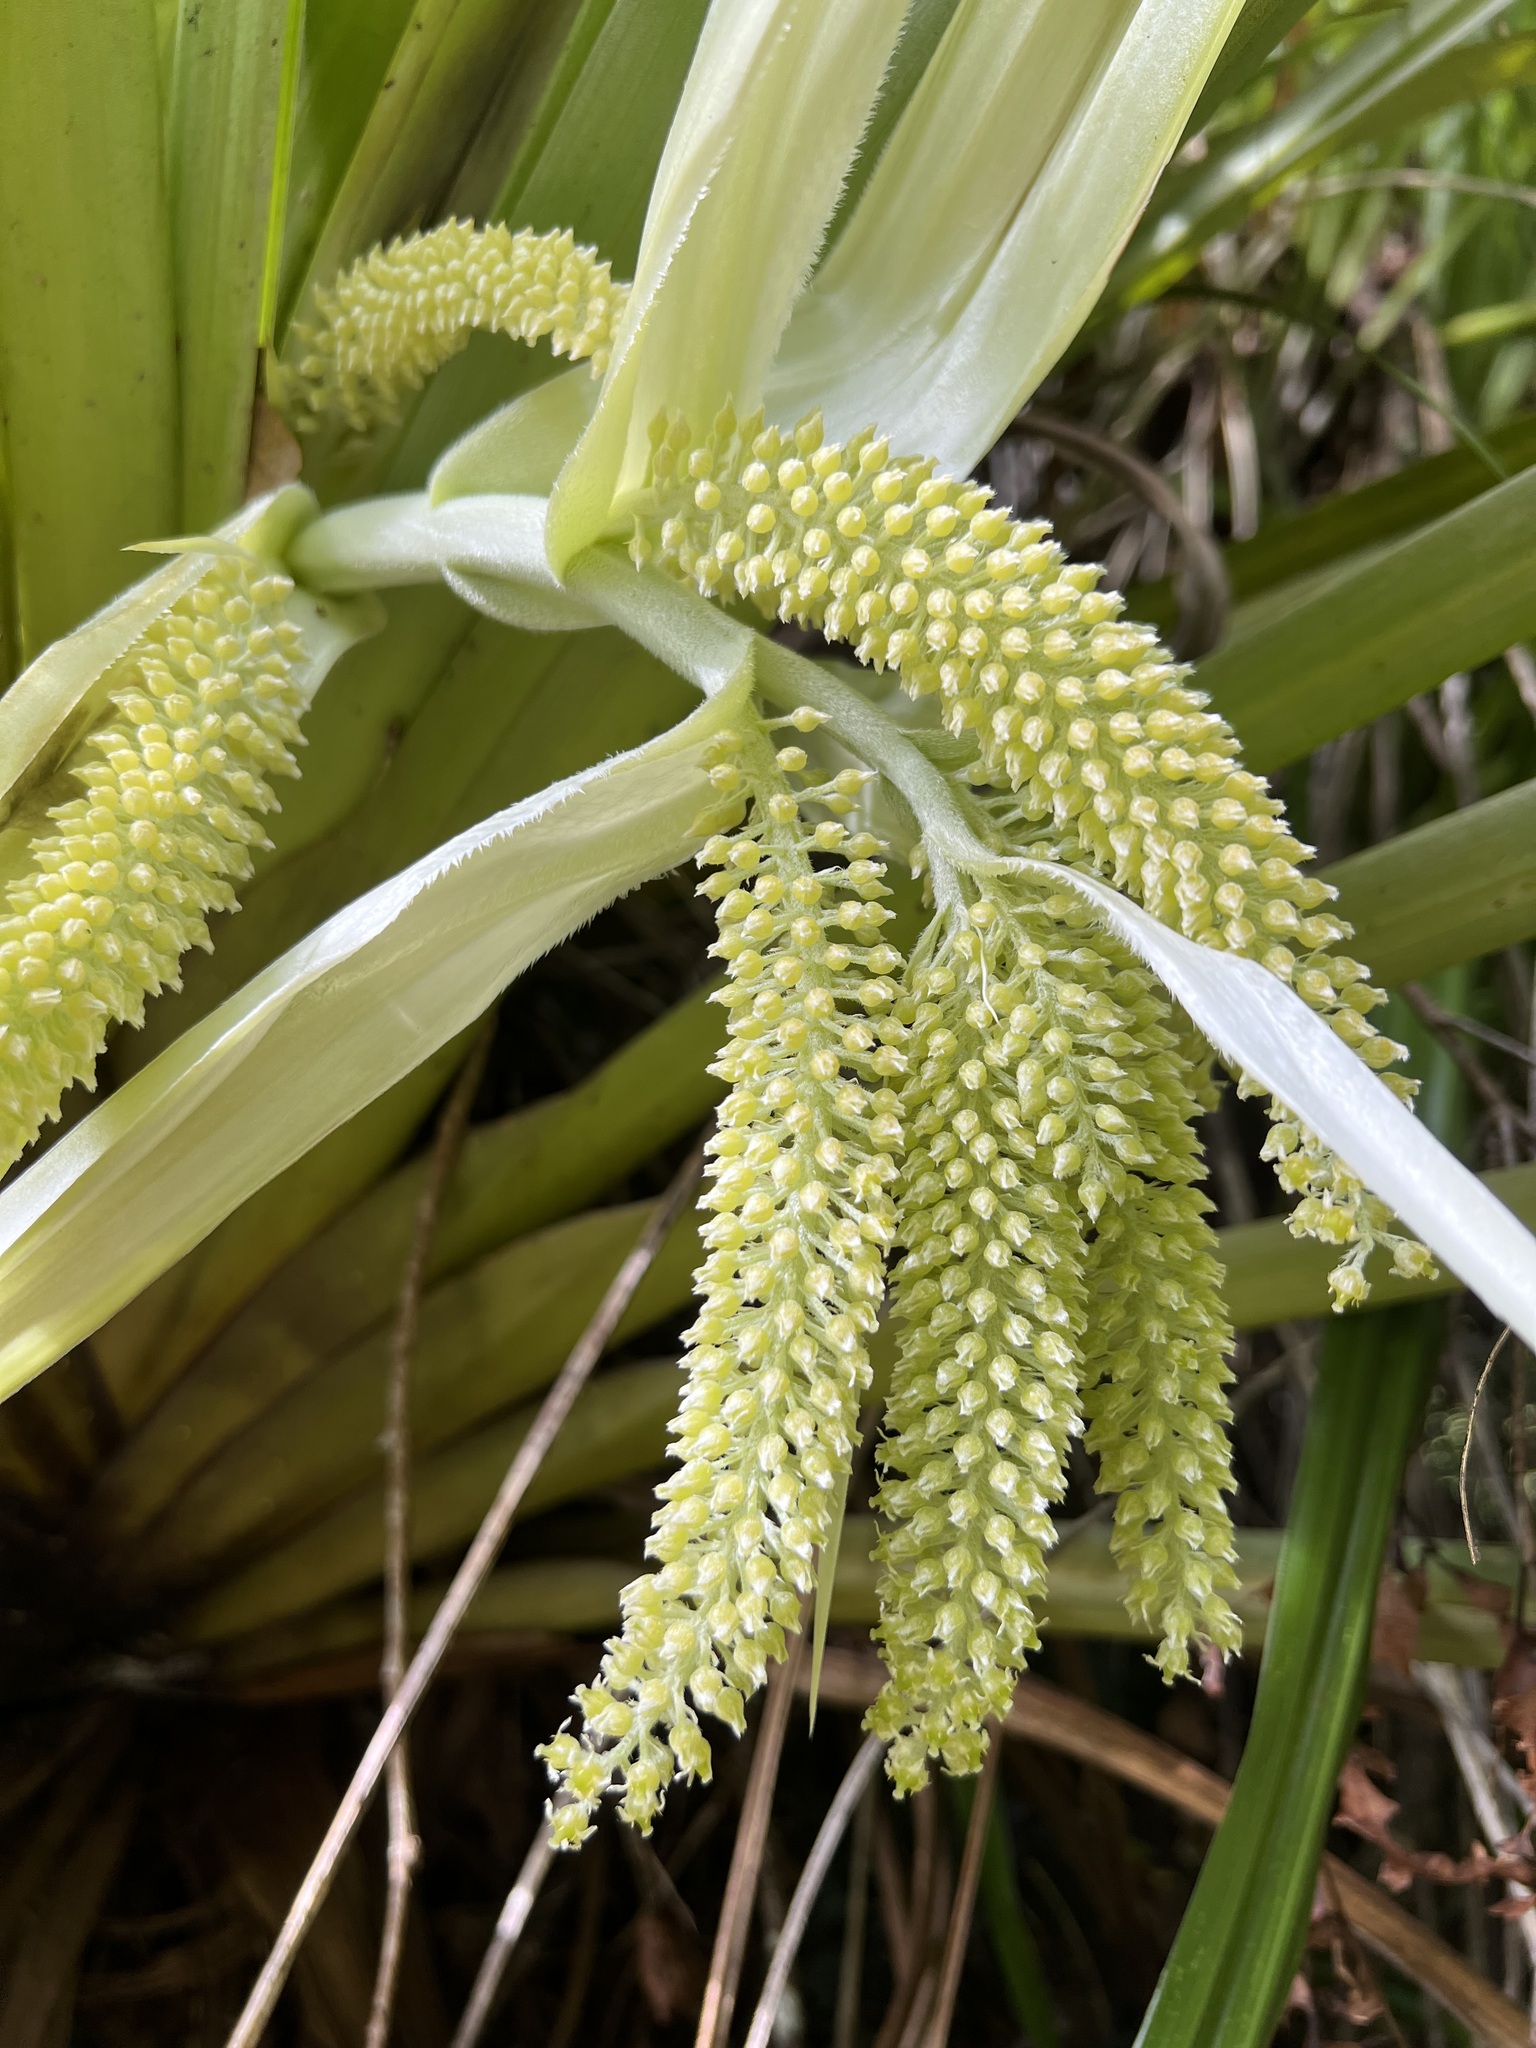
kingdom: Plantae
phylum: Tracheophyta
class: Liliopsida
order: Asparagales
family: Asteliaceae
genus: Astelia
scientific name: Astelia hastata
